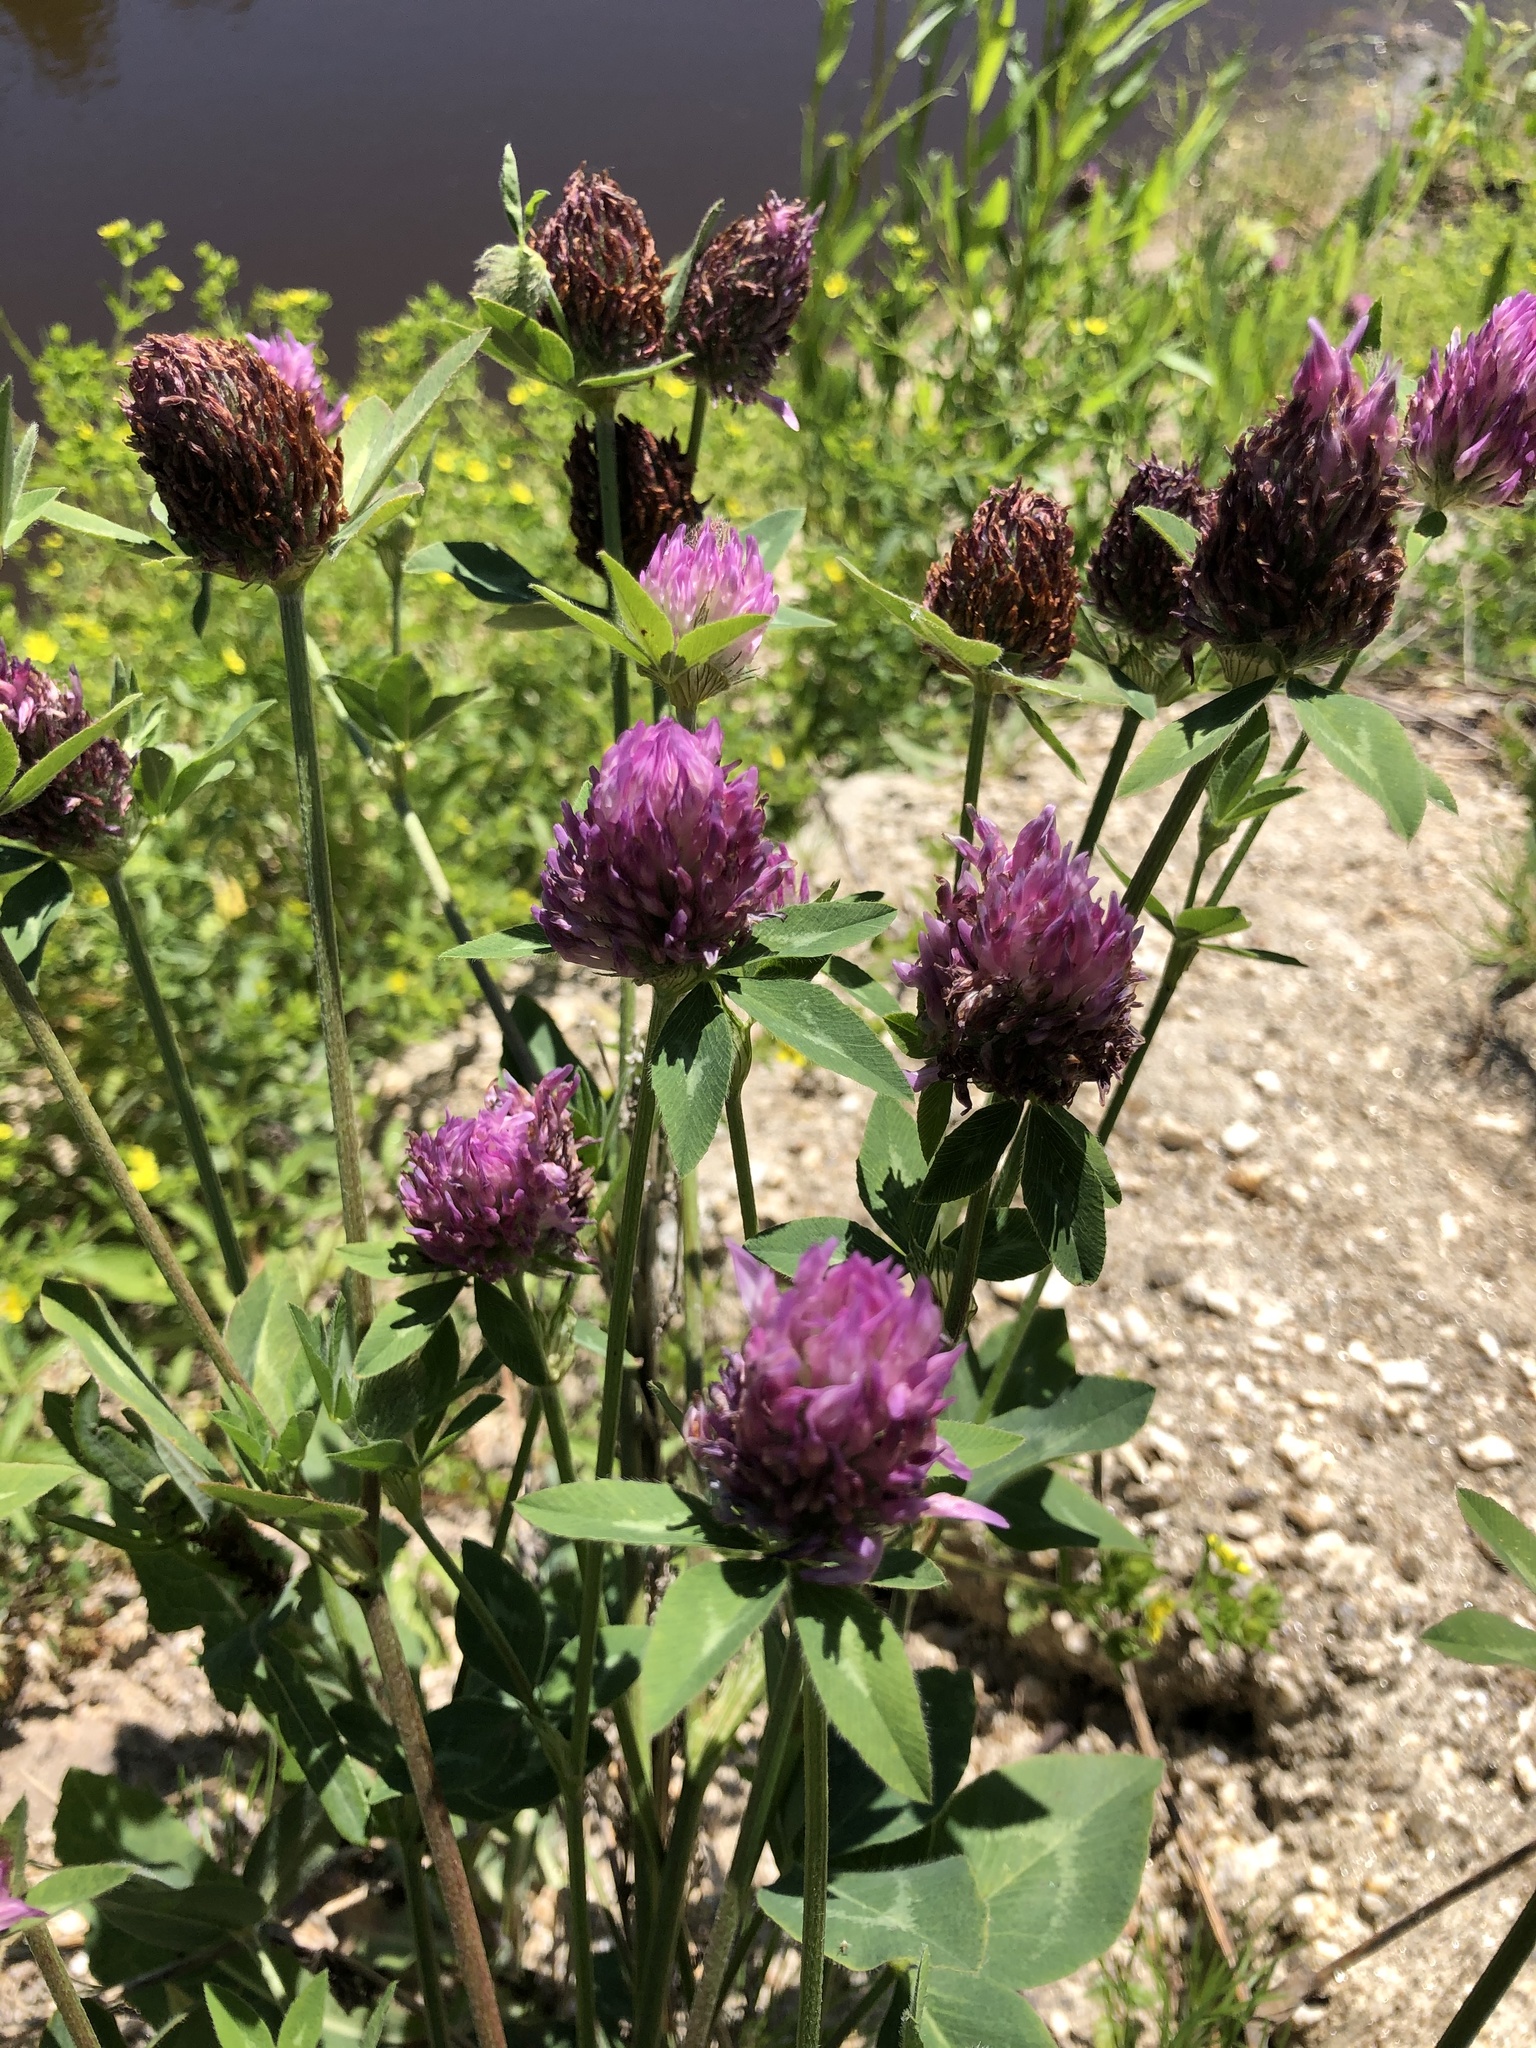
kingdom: Plantae
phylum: Tracheophyta
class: Magnoliopsida
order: Fabales
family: Fabaceae
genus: Trifolium
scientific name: Trifolium pratense
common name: Red clover
